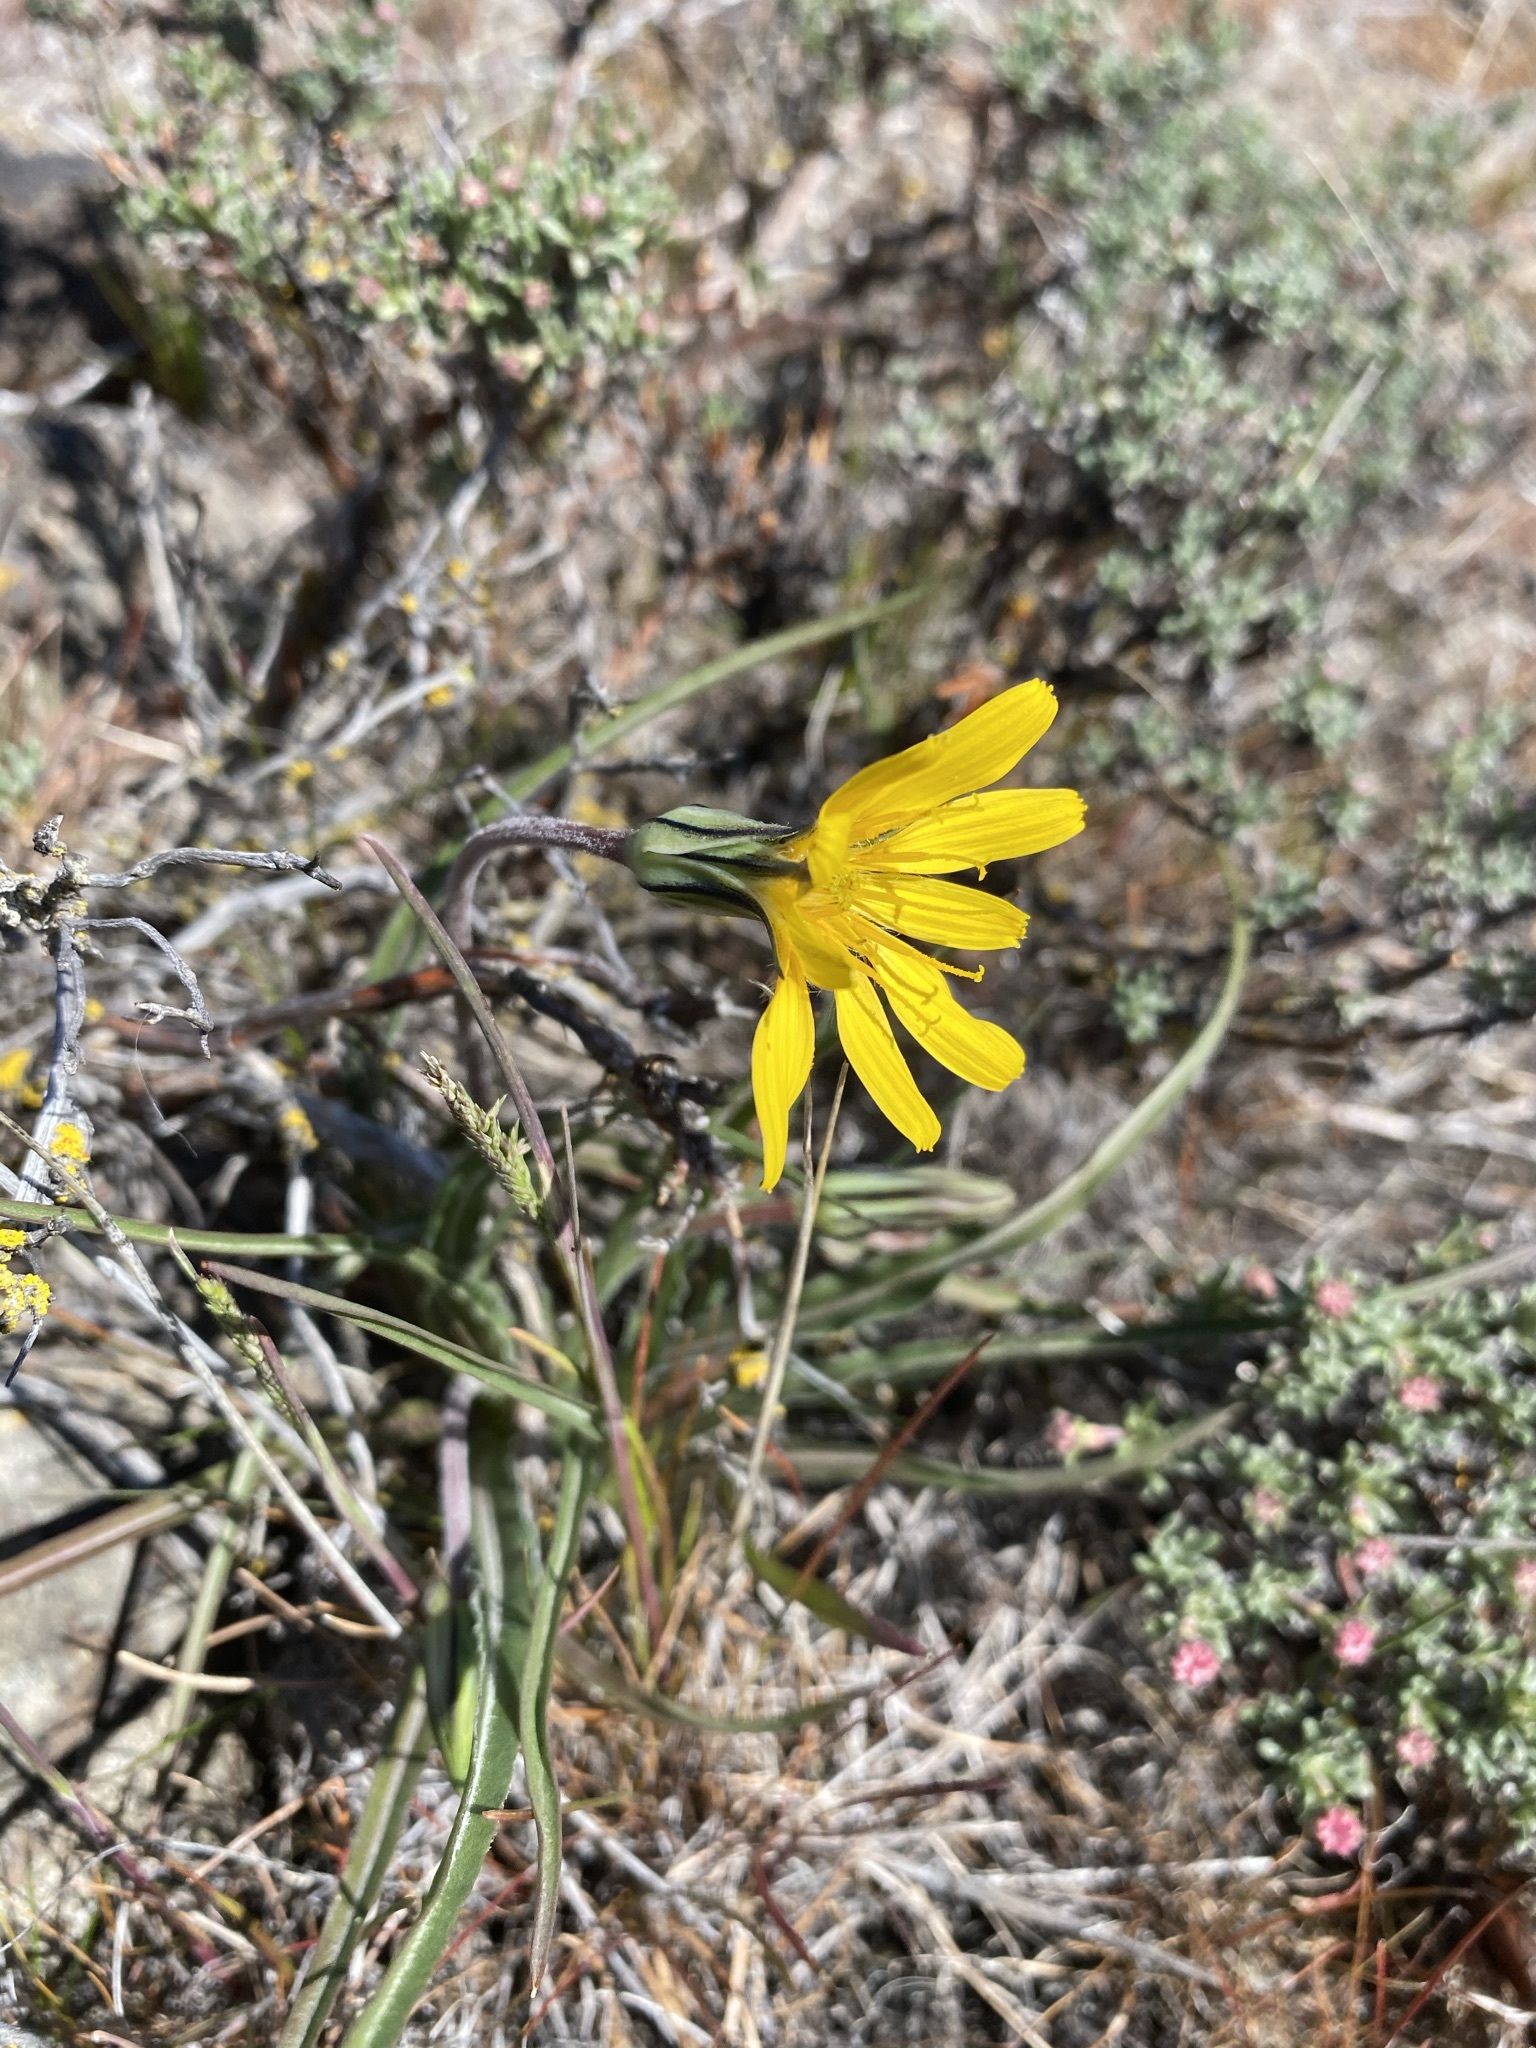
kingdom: Plantae
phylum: Tracheophyta
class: Magnoliopsida
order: Asterales
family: Asteraceae
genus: Microseris
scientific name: Microseris troximoides
